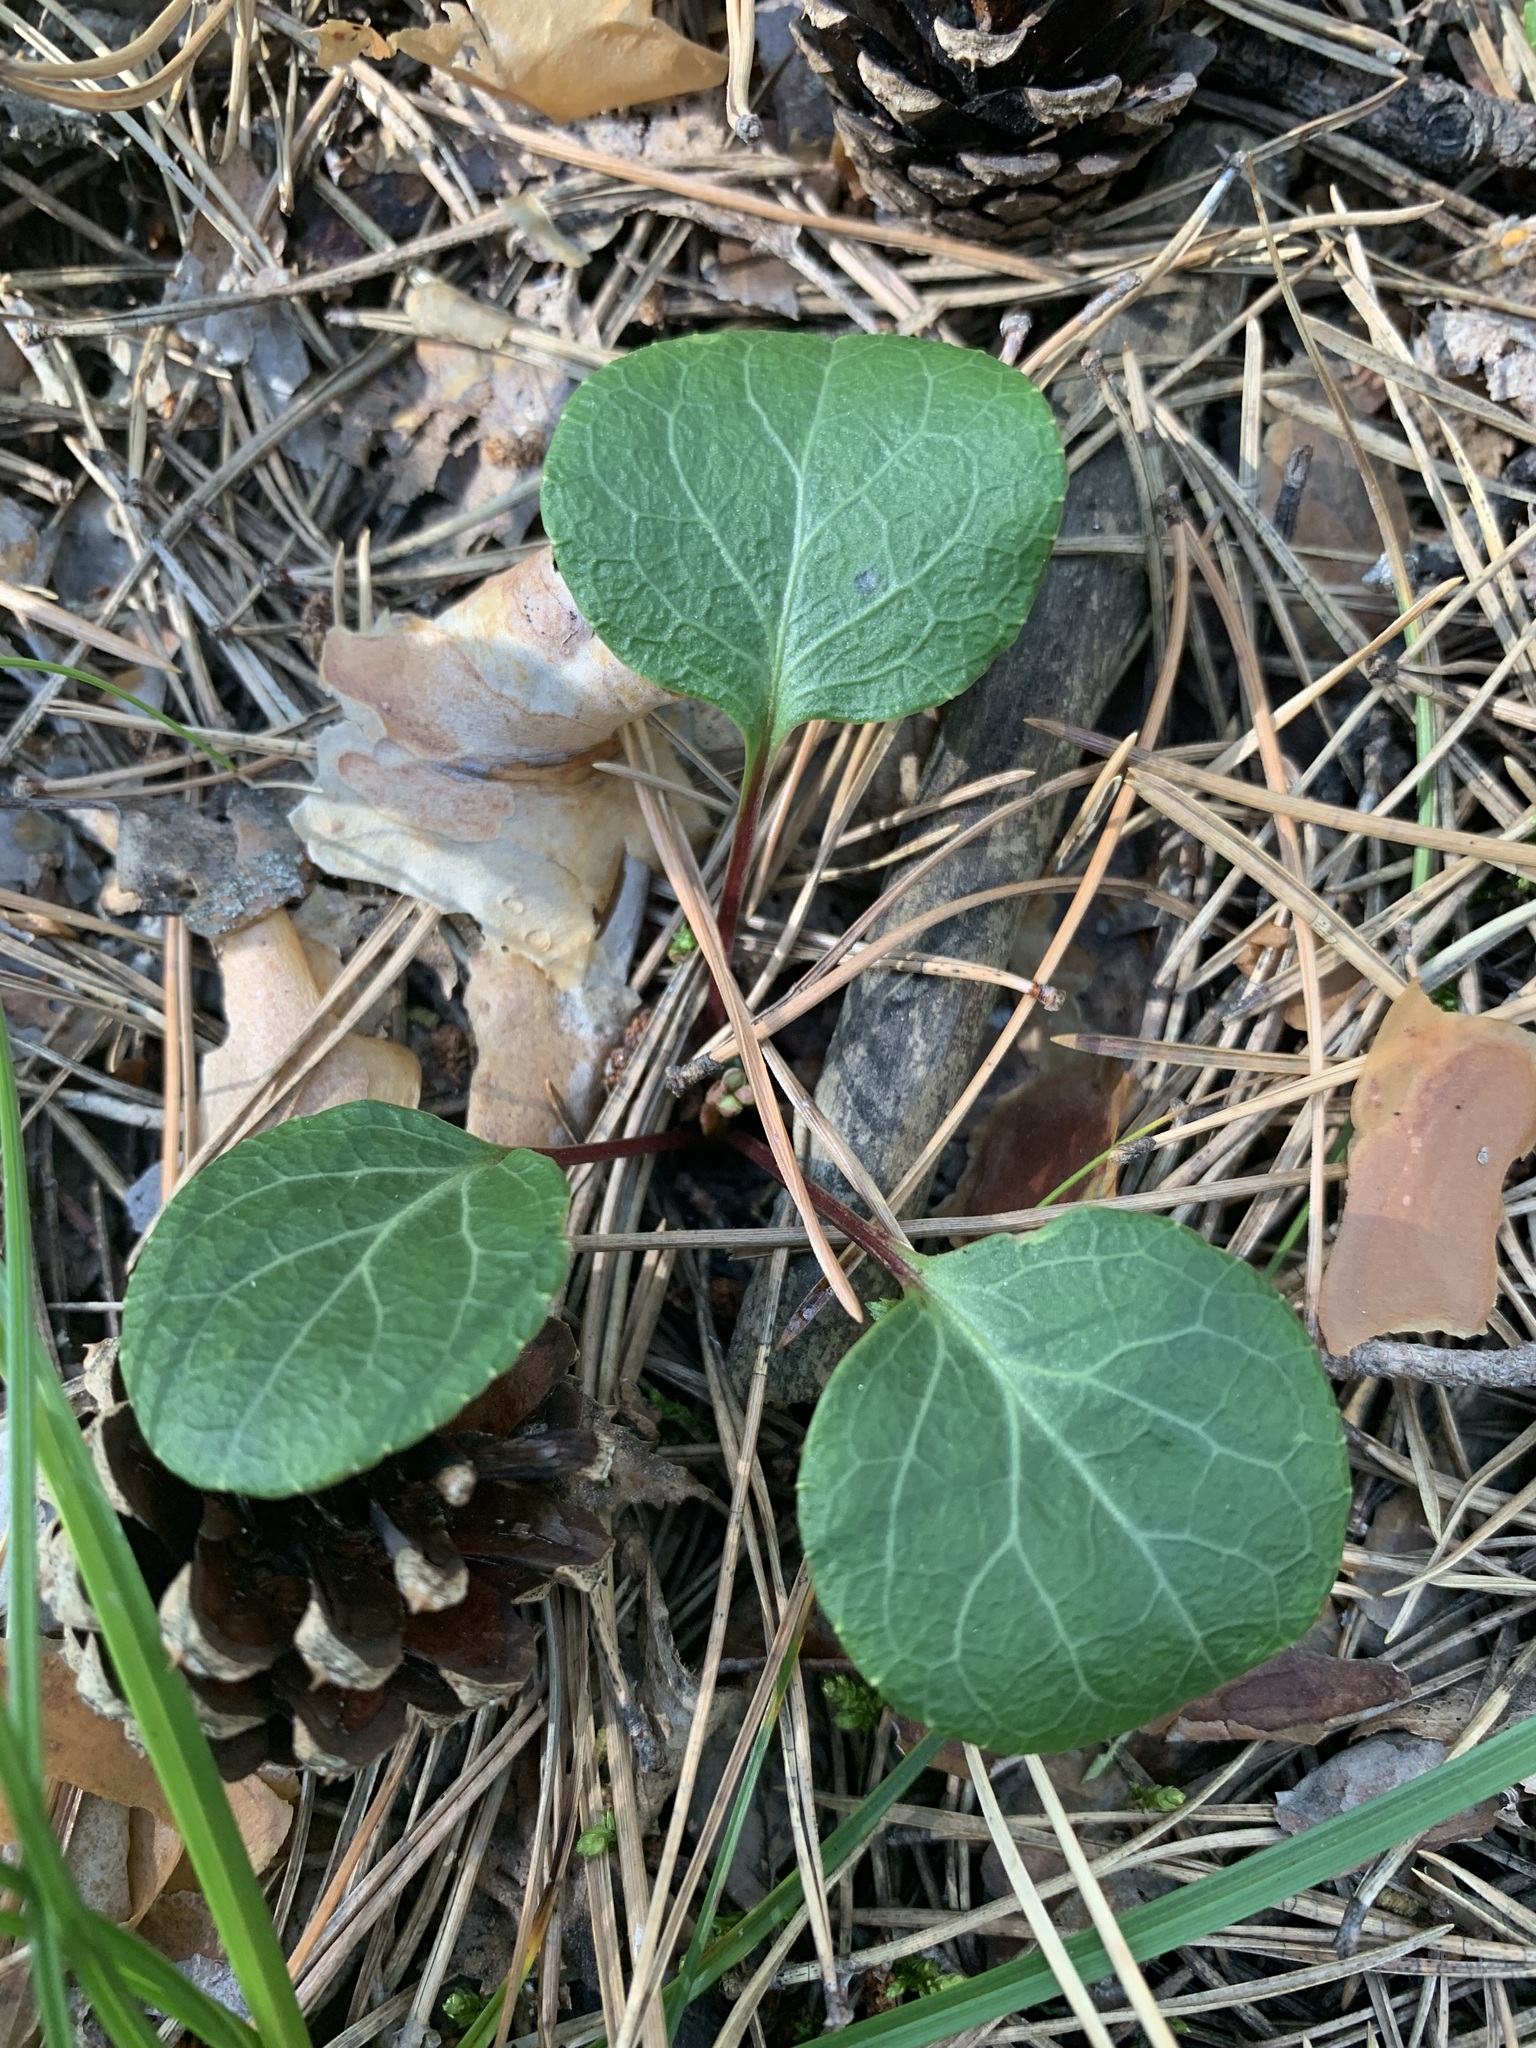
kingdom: Plantae
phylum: Tracheophyta
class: Magnoliopsida
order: Ericales
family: Ericaceae
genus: Pyrola
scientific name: Pyrola chlorantha
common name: Green wintergreen
